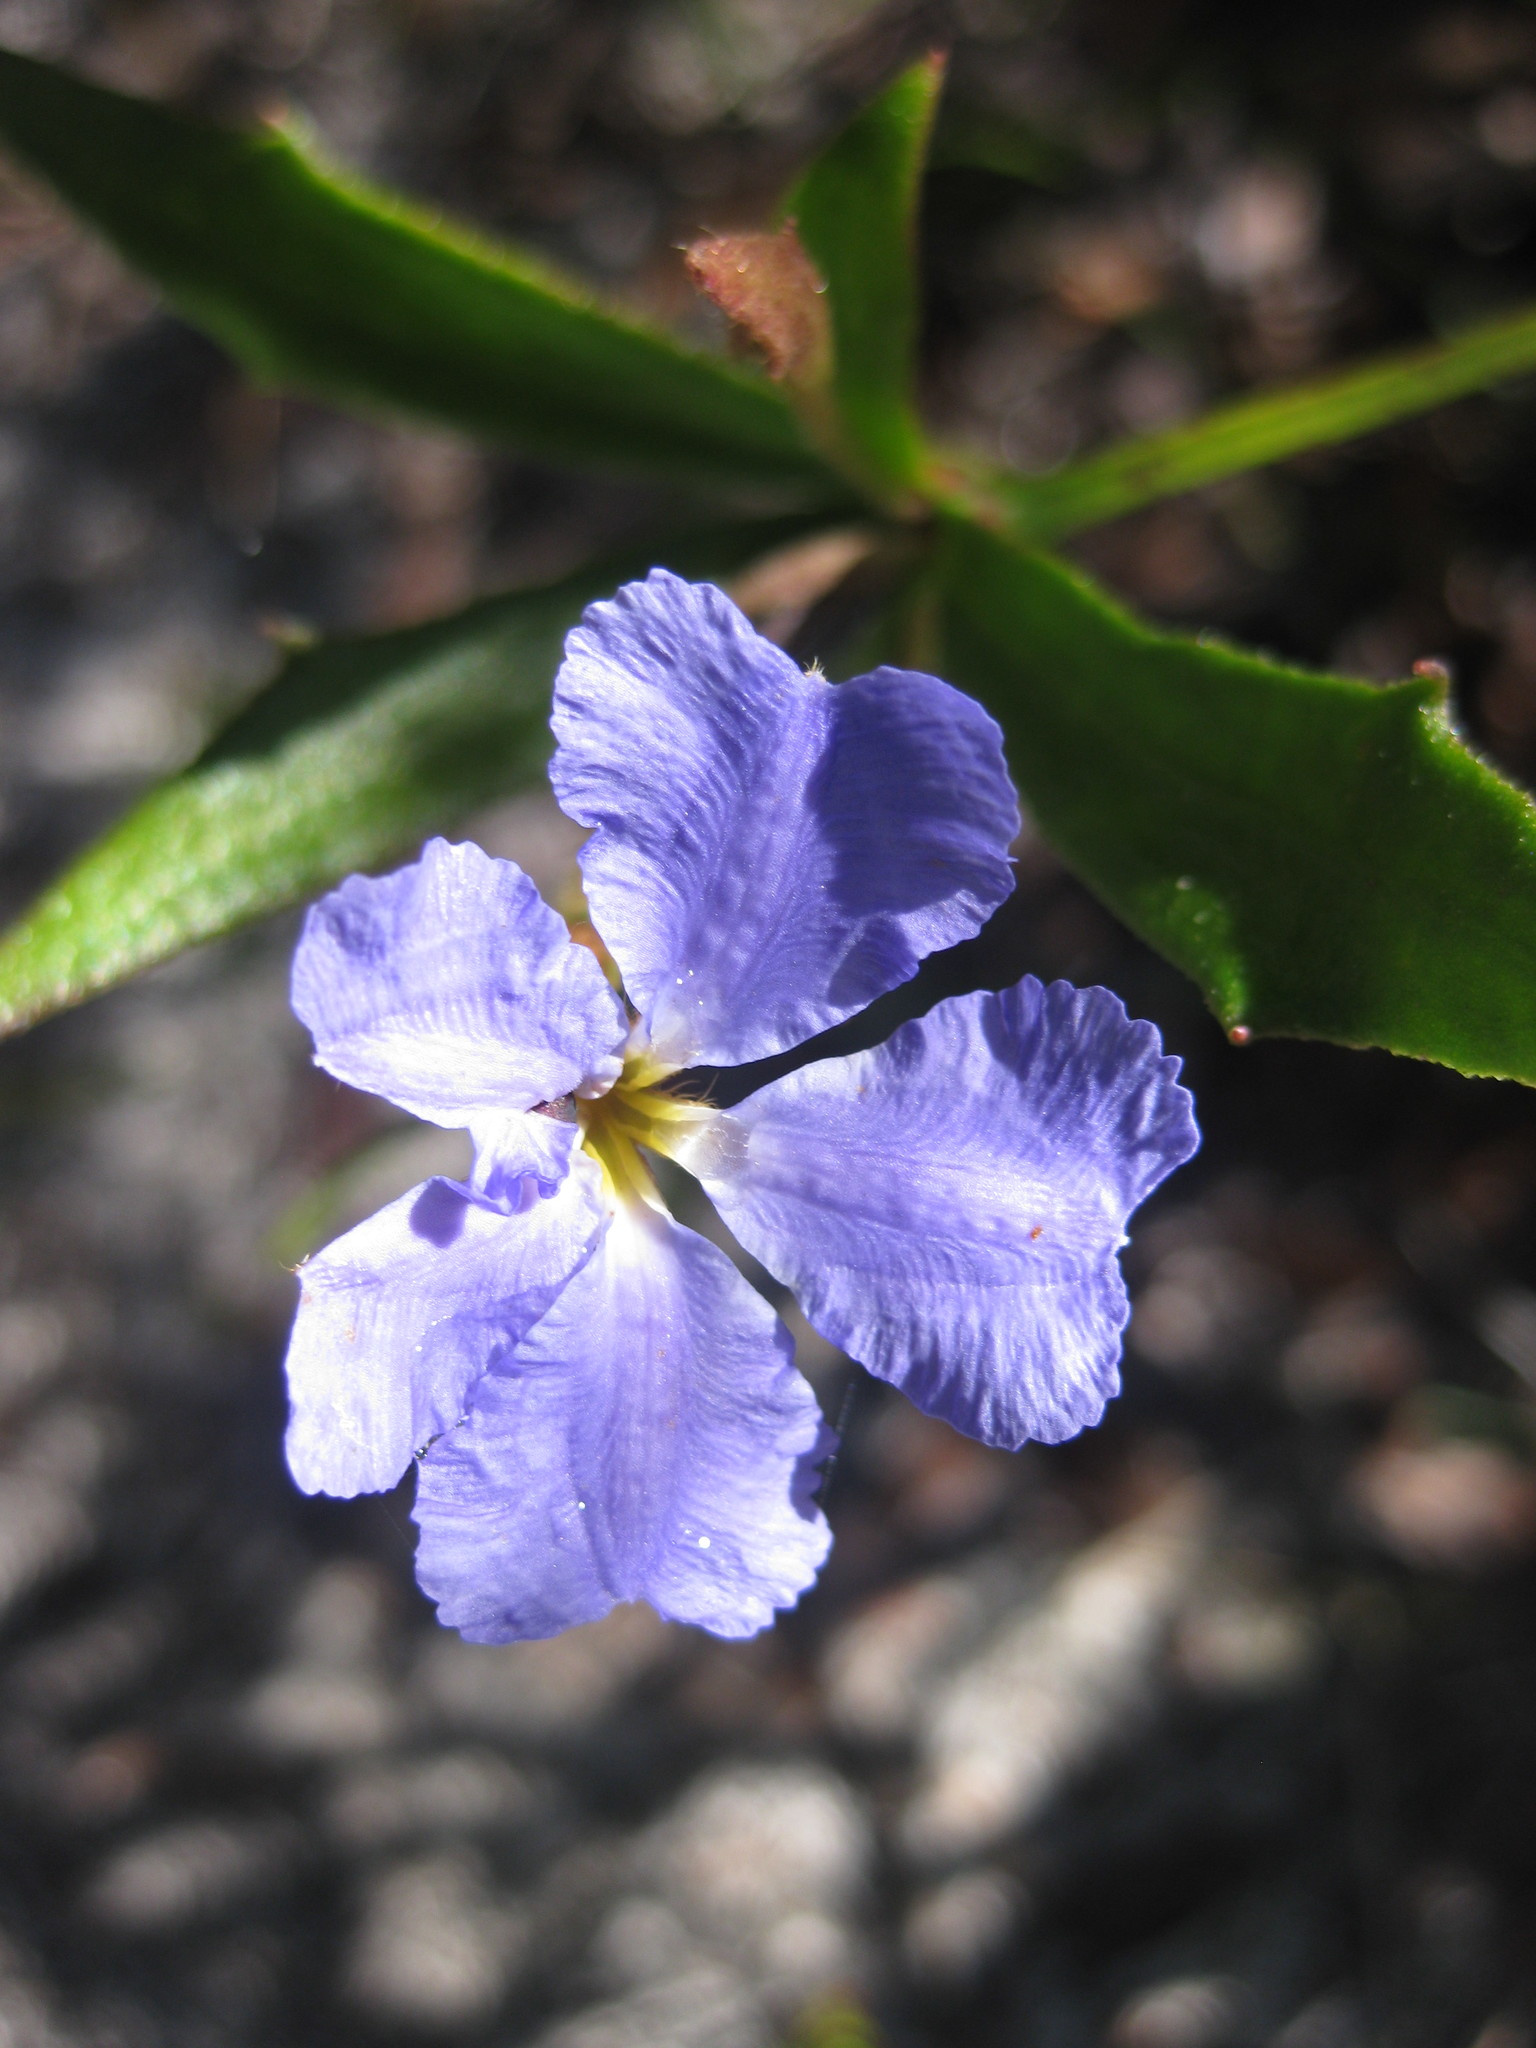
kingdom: Plantae
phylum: Tracheophyta
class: Magnoliopsida
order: Asterales
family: Goodeniaceae
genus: Dampiera
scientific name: Dampiera stricta
